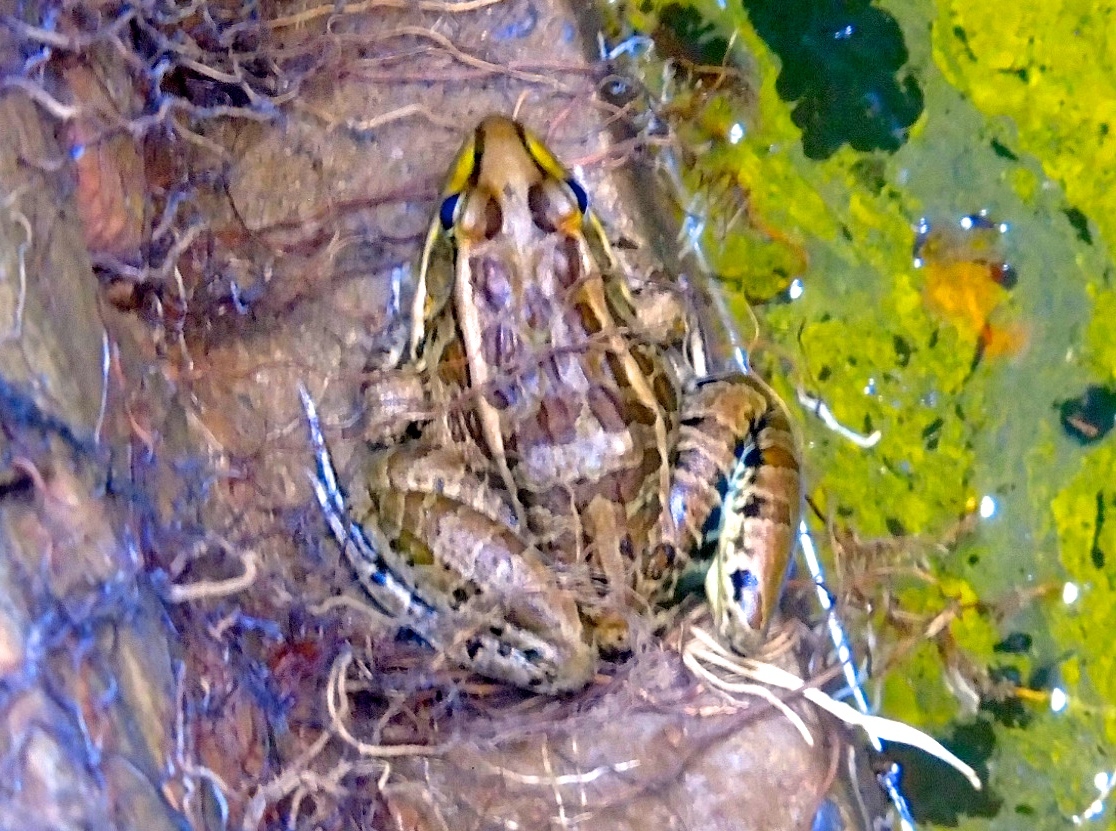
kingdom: Animalia
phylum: Chordata
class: Amphibia
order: Anura
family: Ranidae
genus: Lithobates
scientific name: Lithobates magnaocularis
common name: Northwest mexico leopard frog
